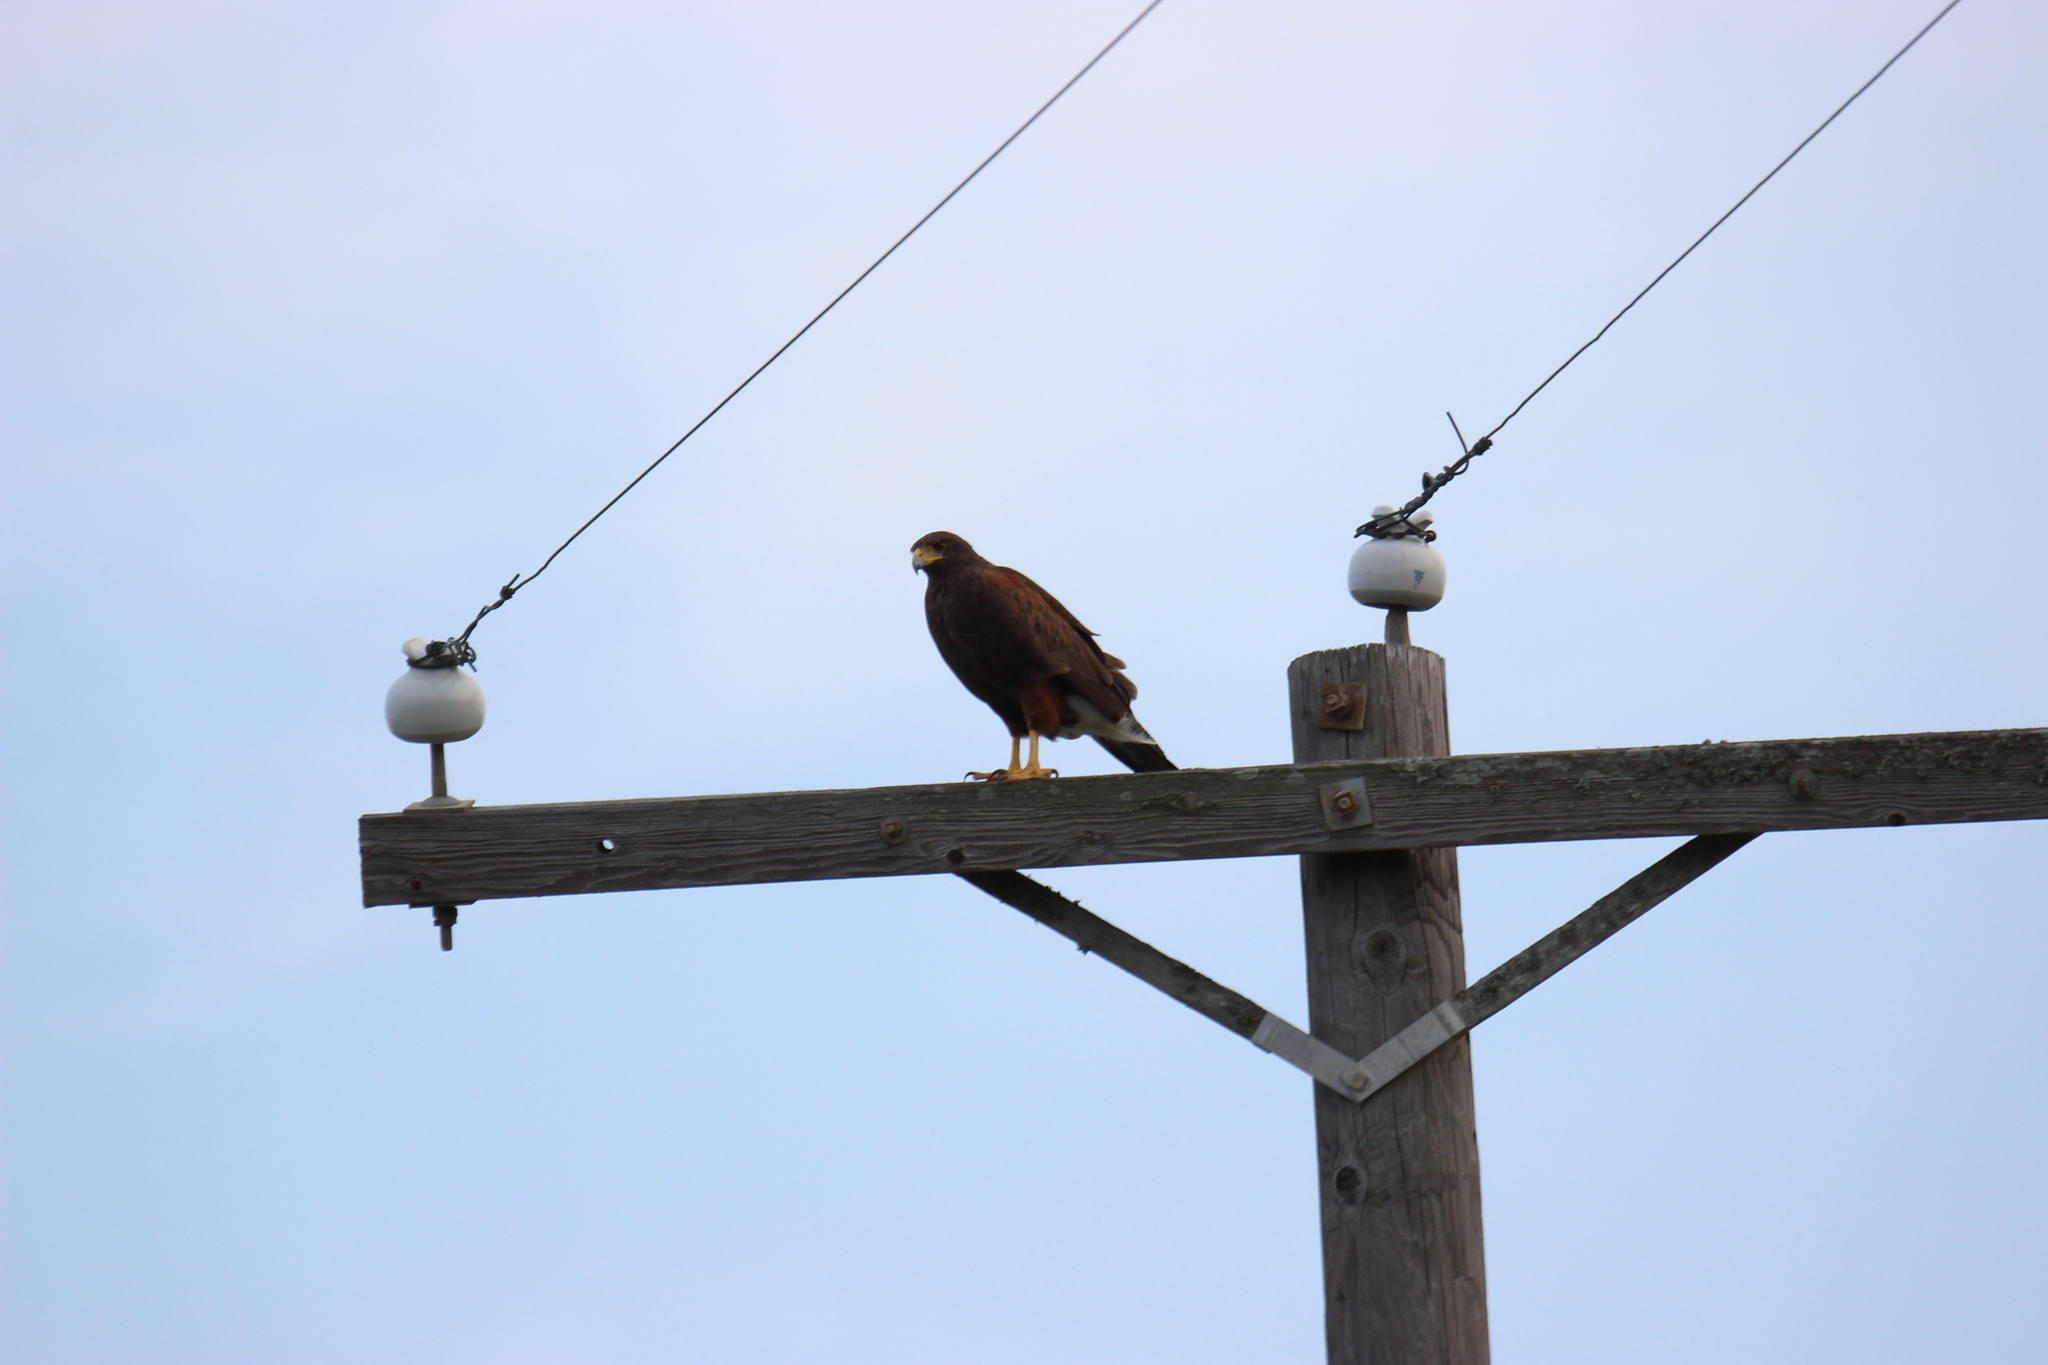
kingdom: Animalia
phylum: Chordata
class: Aves
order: Accipitriformes
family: Accipitridae
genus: Parabuteo
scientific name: Parabuteo unicinctus
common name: Harris's hawk
